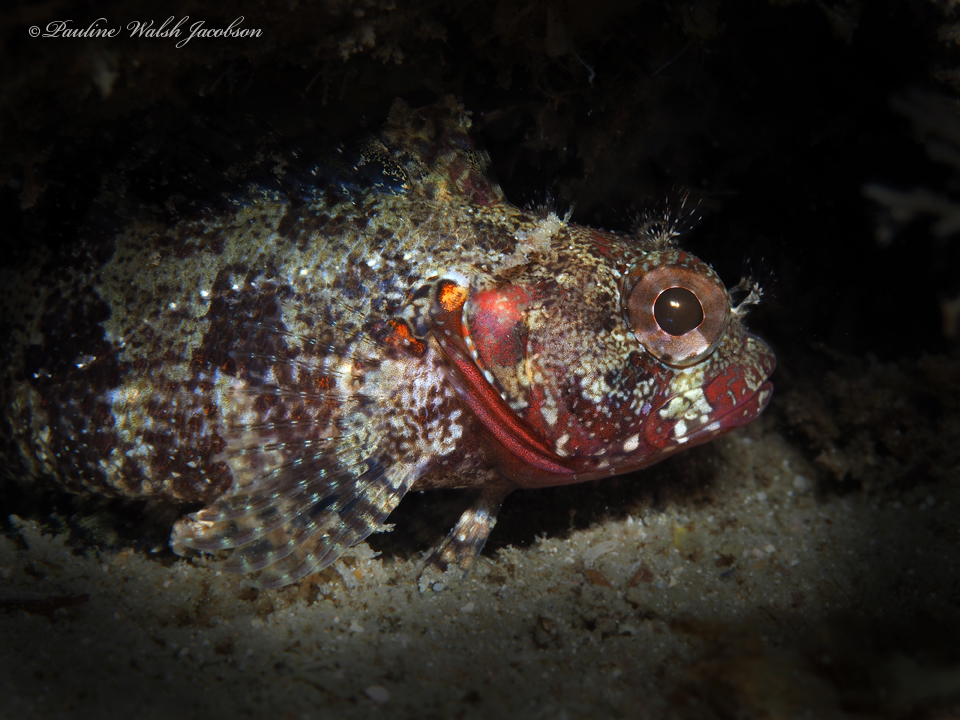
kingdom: Animalia
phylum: Chordata
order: Perciformes
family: Labrisomidae
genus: Gobioclinus
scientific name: Gobioclinus kalisherae
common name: Downy blenny
